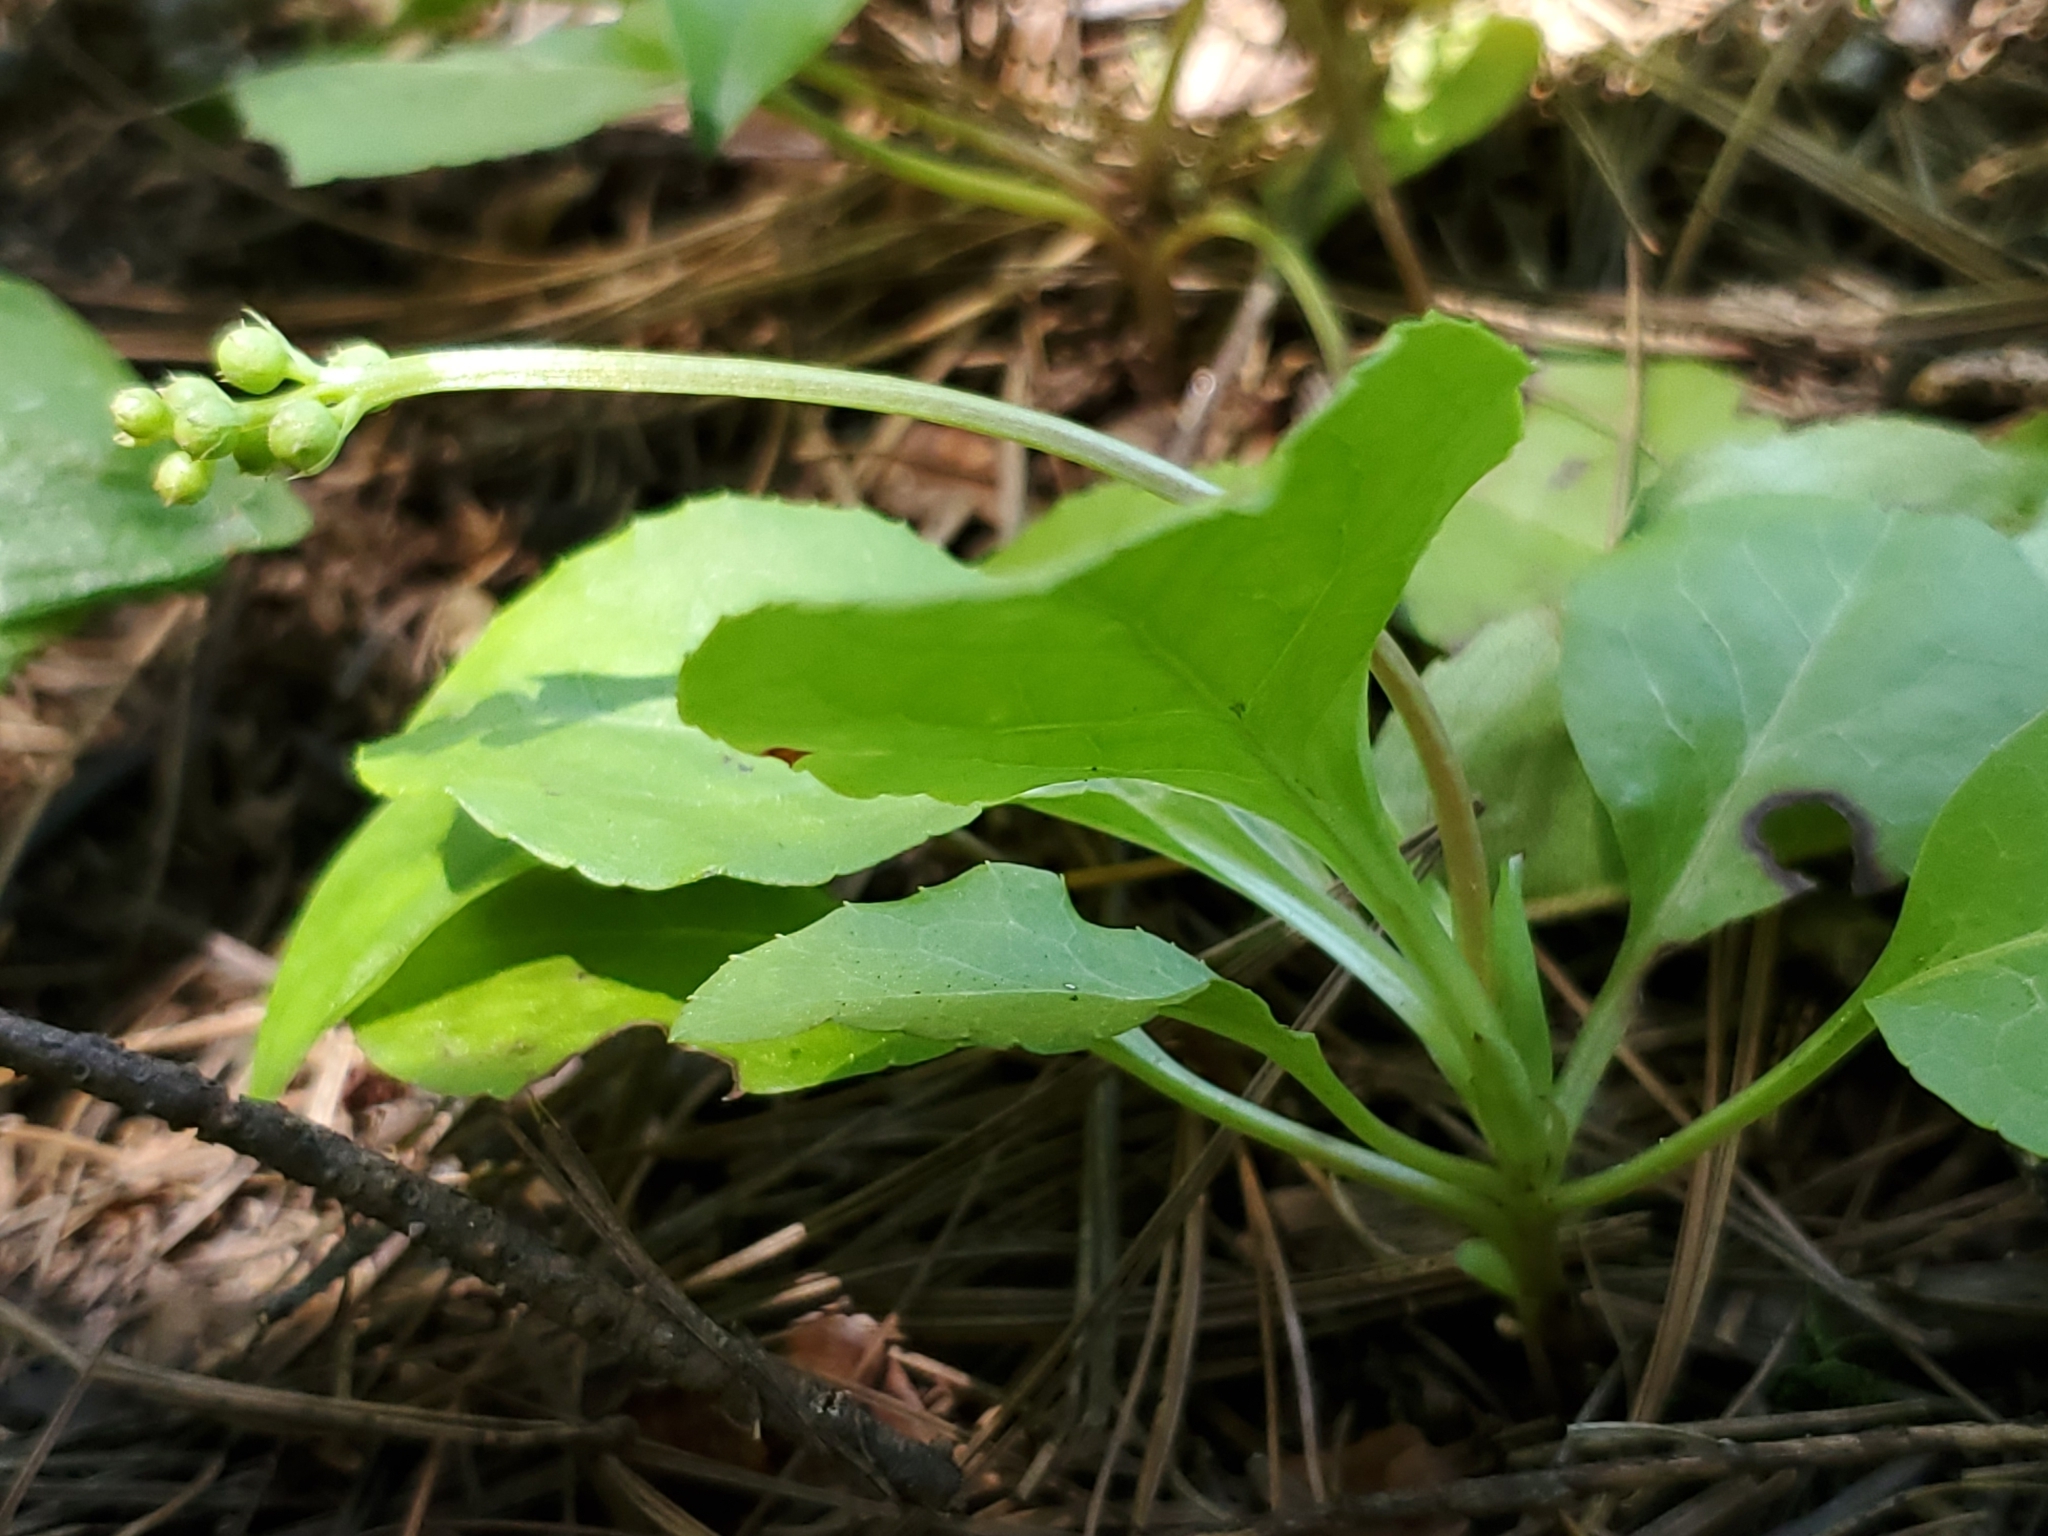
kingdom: Plantae
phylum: Tracheophyta
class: Magnoliopsida
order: Ericales
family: Ericaceae
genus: Orthilia
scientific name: Orthilia secunda
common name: One-sided orthilia
